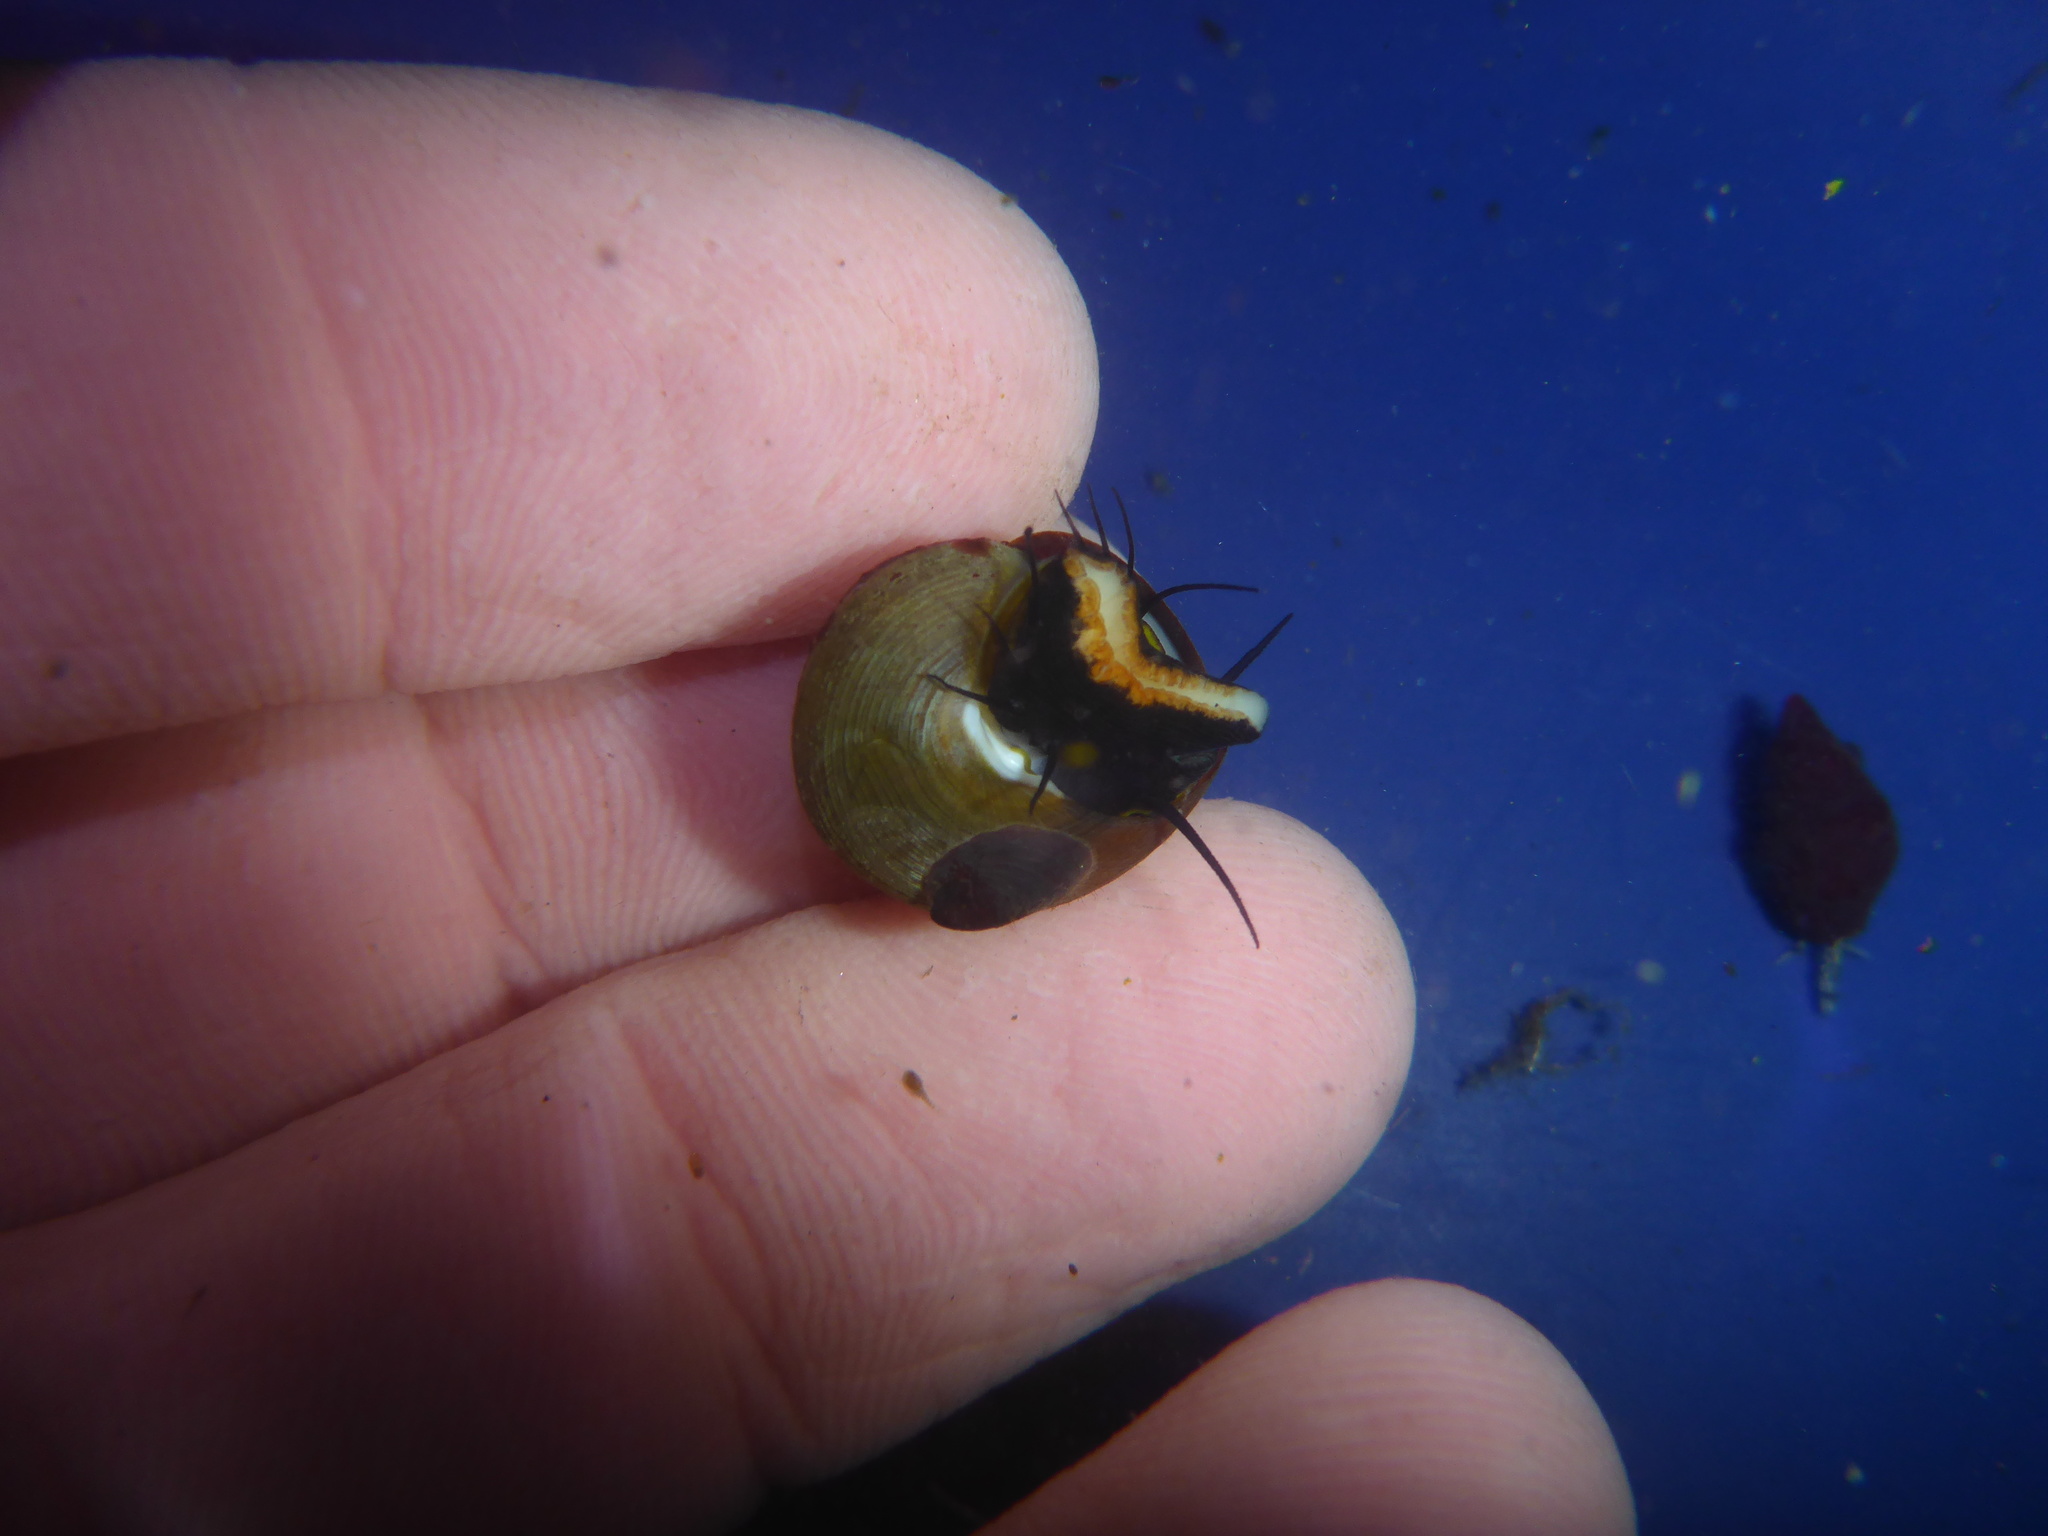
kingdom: Animalia
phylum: Mollusca
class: Gastropoda
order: Trochida
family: Tegulidae
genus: Tegula
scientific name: Tegula brunnea
